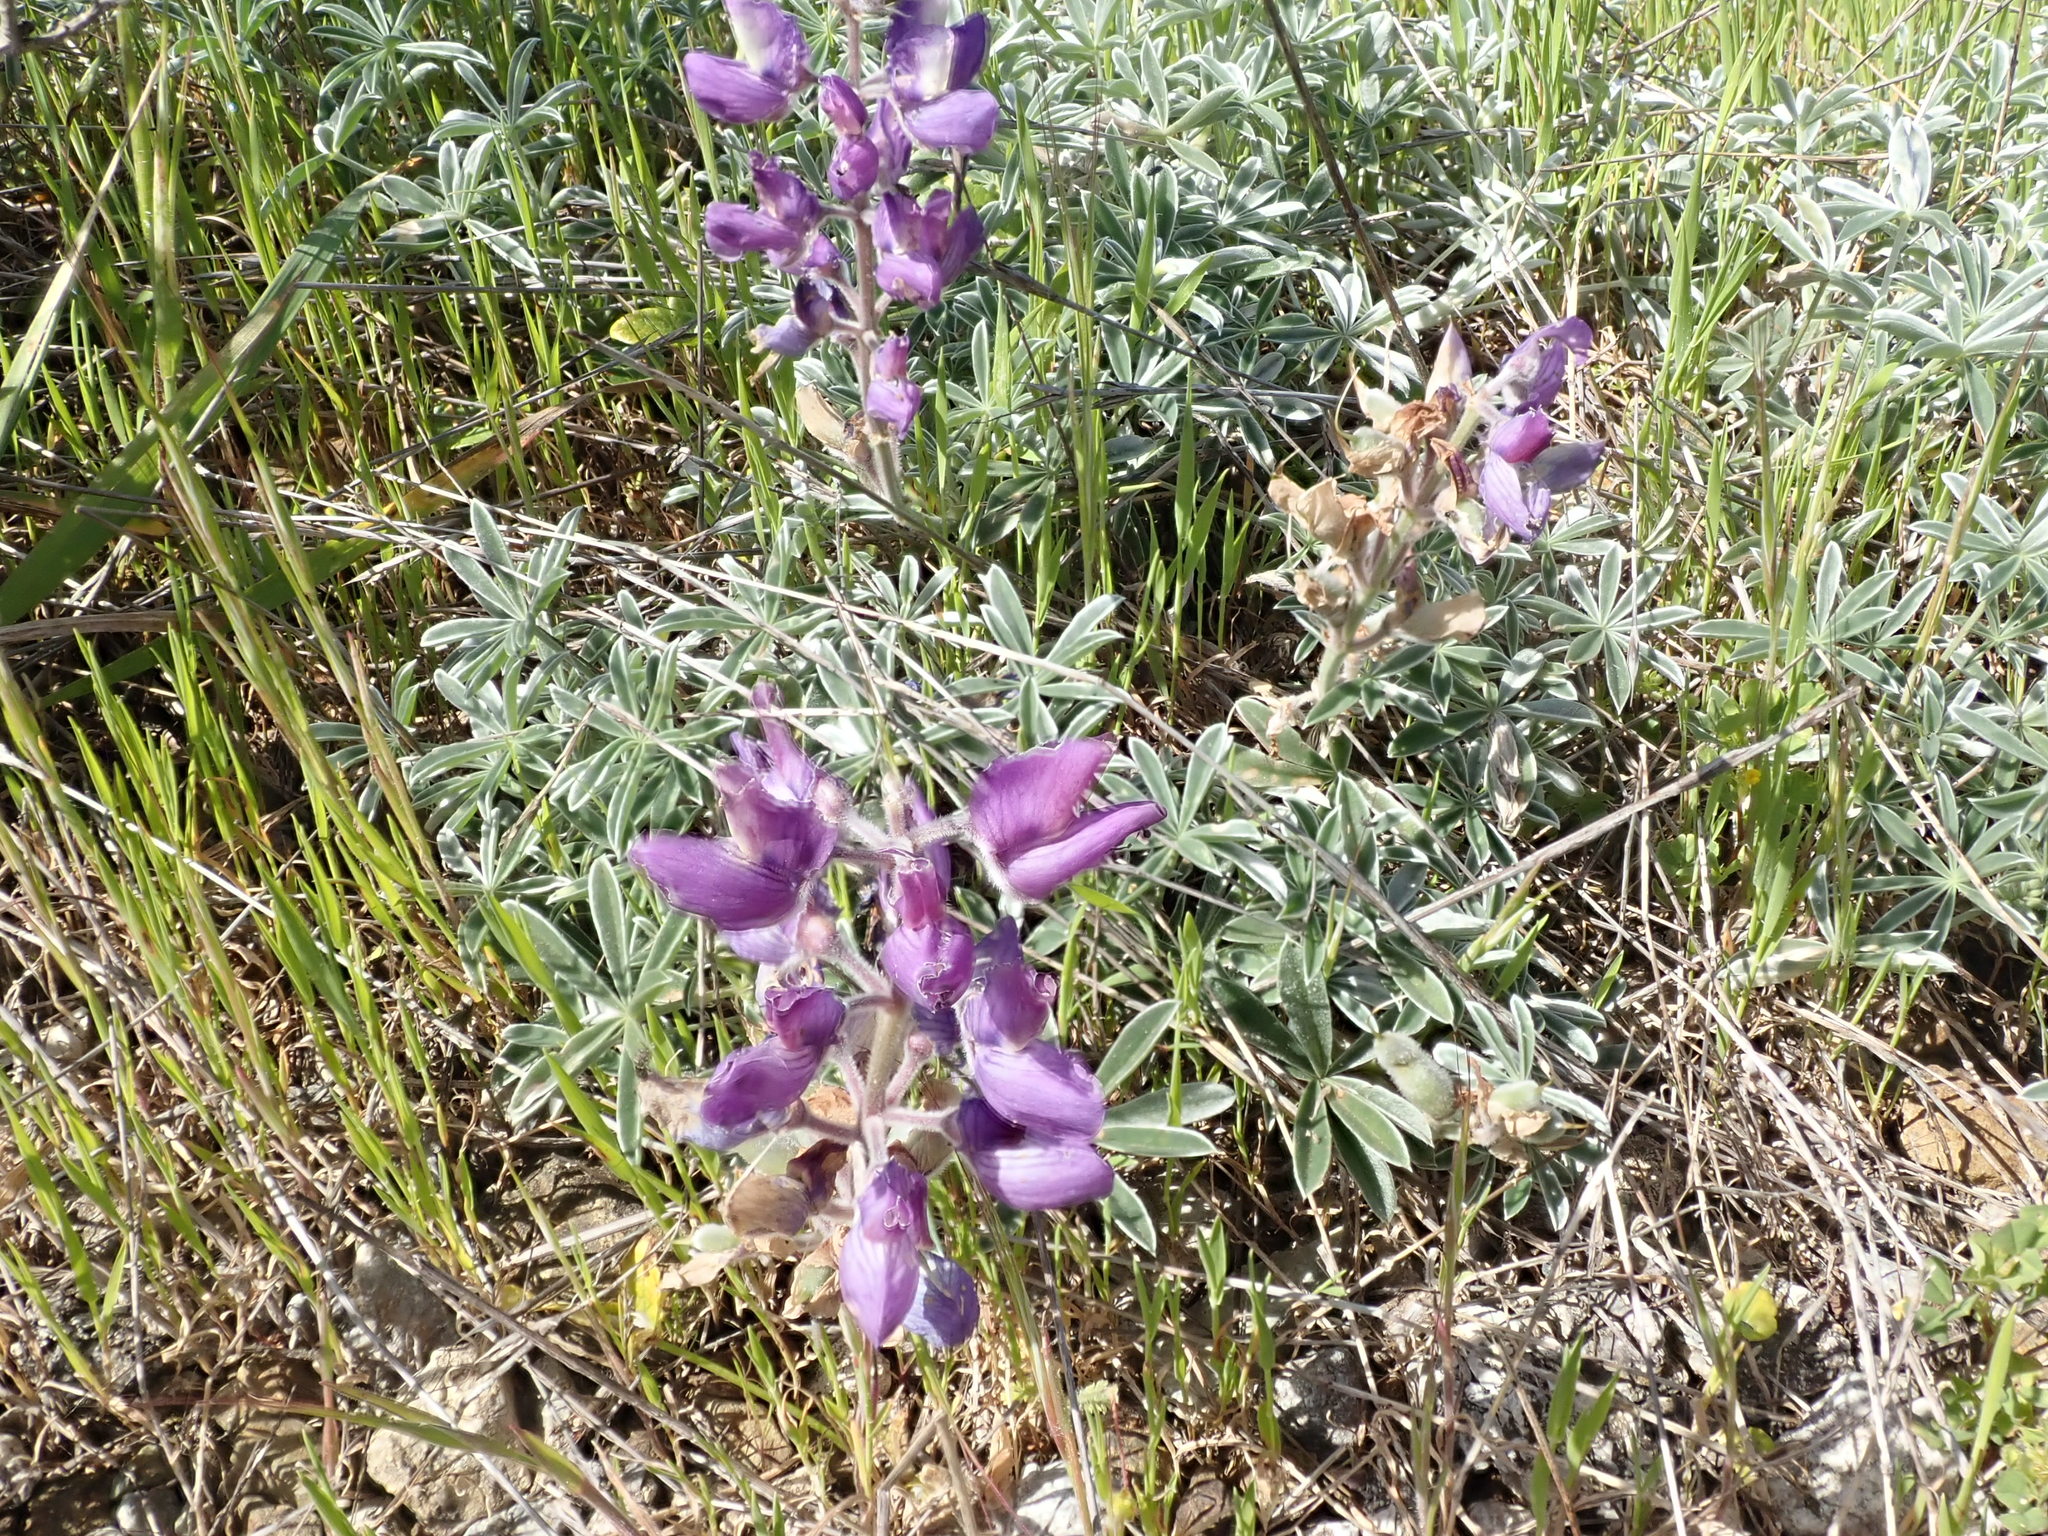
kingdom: Plantae
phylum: Tracheophyta
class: Magnoliopsida
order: Fabales
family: Fabaceae
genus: Lupinus
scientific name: Lupinus albifrons
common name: Foothill lupine
